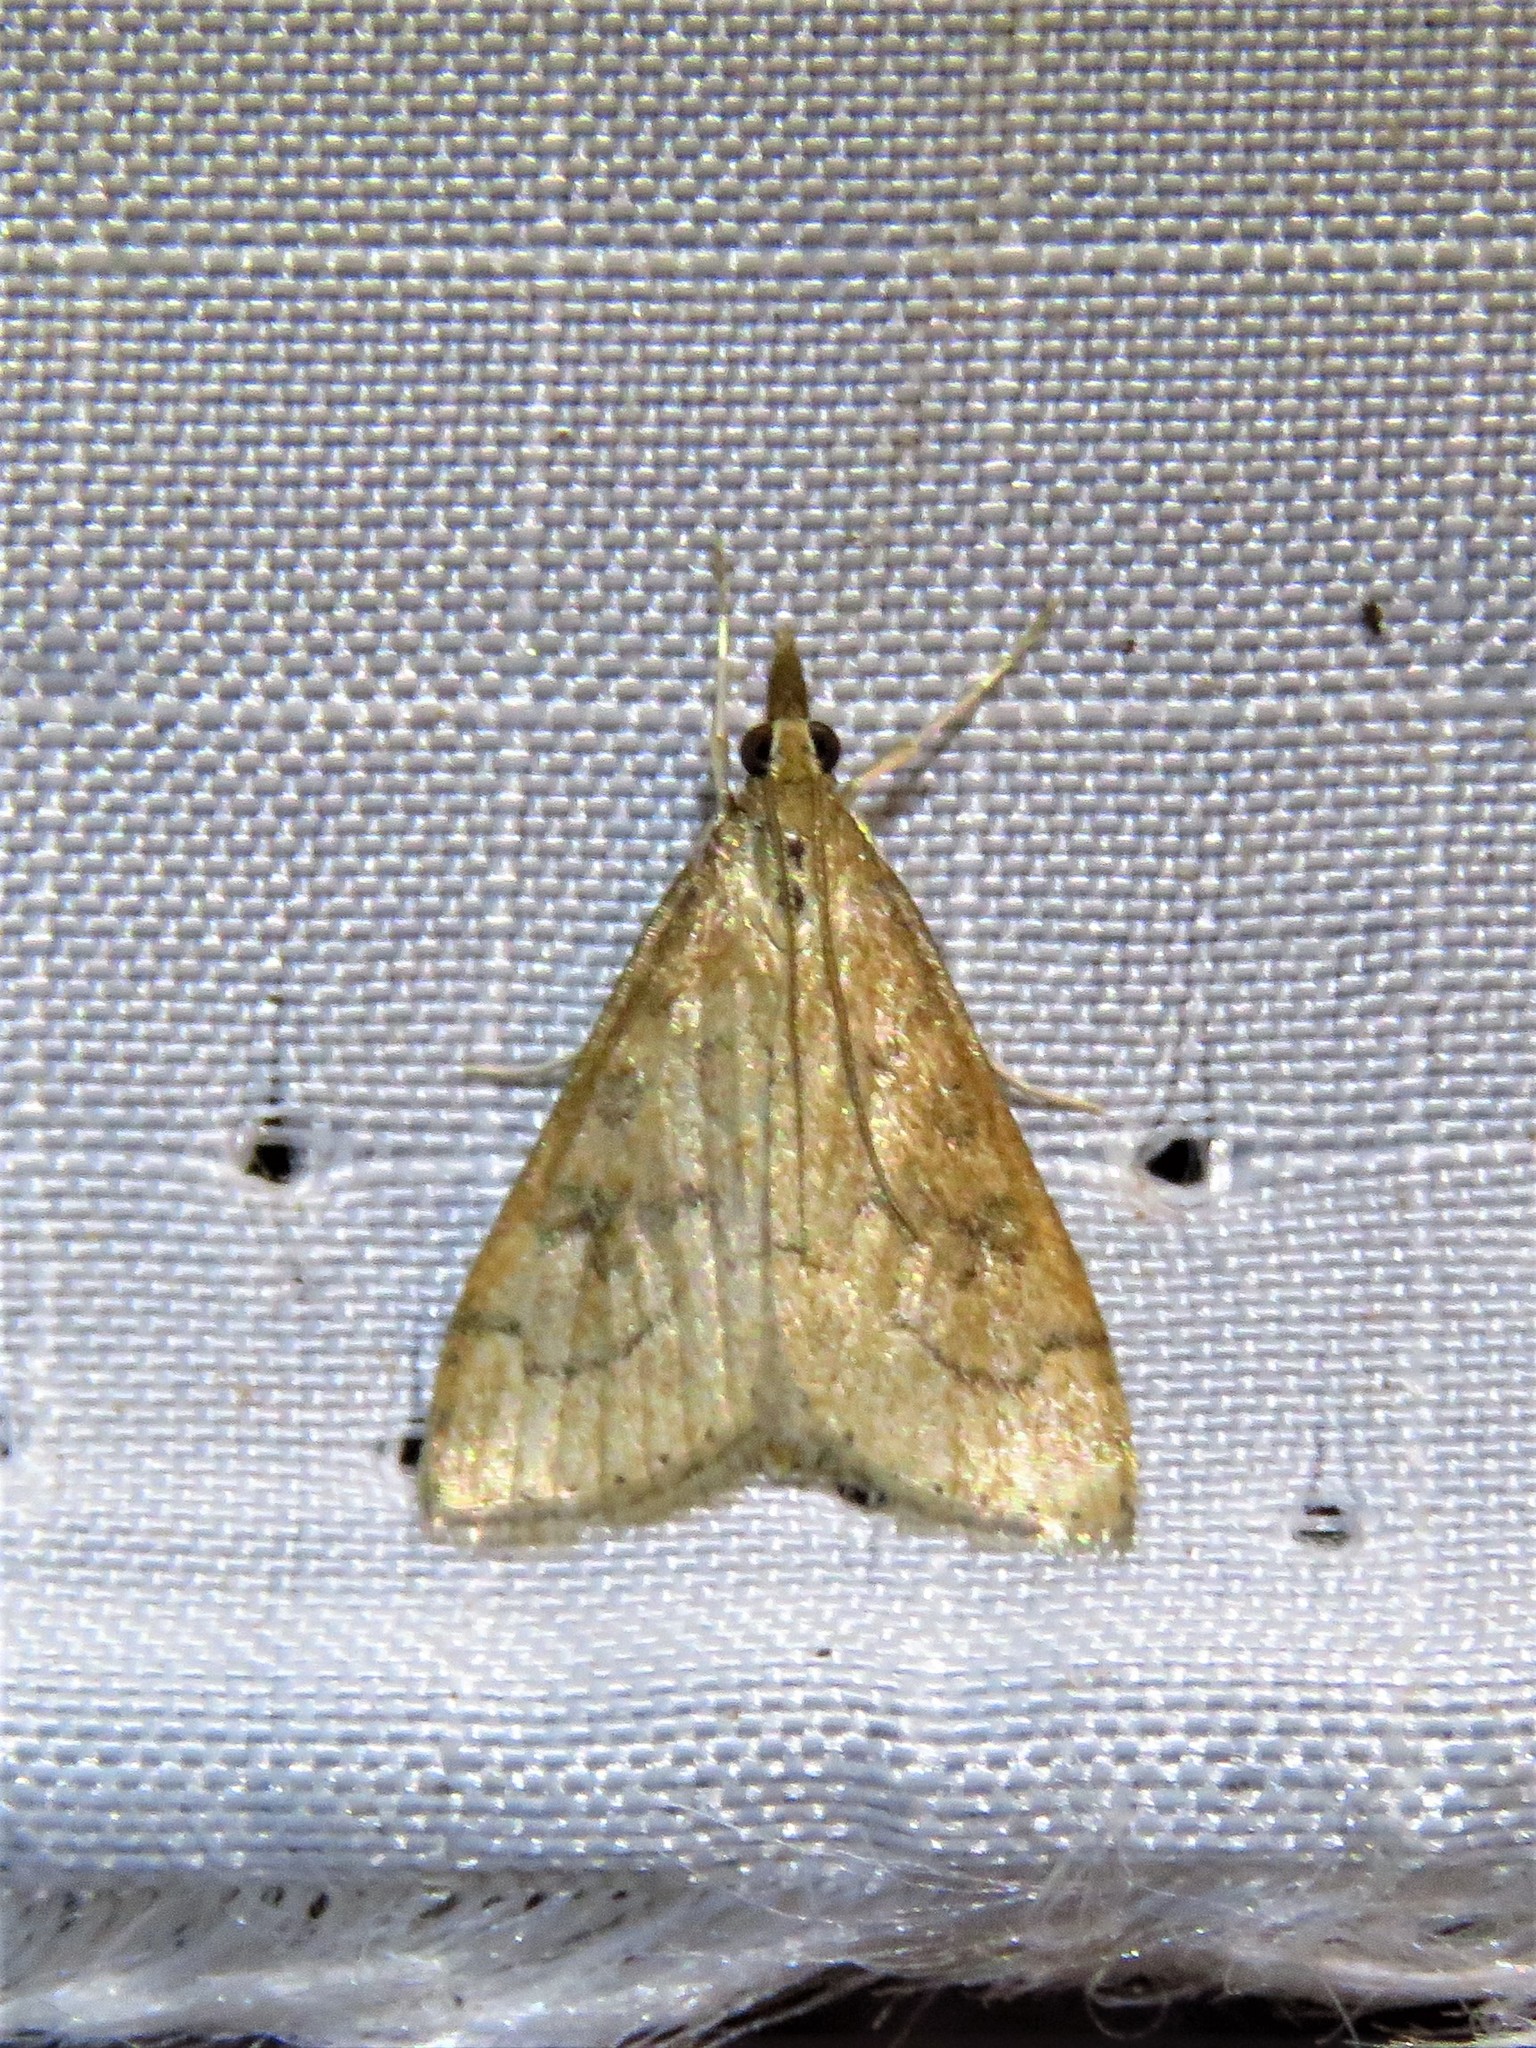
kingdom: Animalia
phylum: Arthropoda
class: Insecta
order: Lepidoptera
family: Crambidae
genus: Udea
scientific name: Udea rubigalis
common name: Celery leaftier moth
